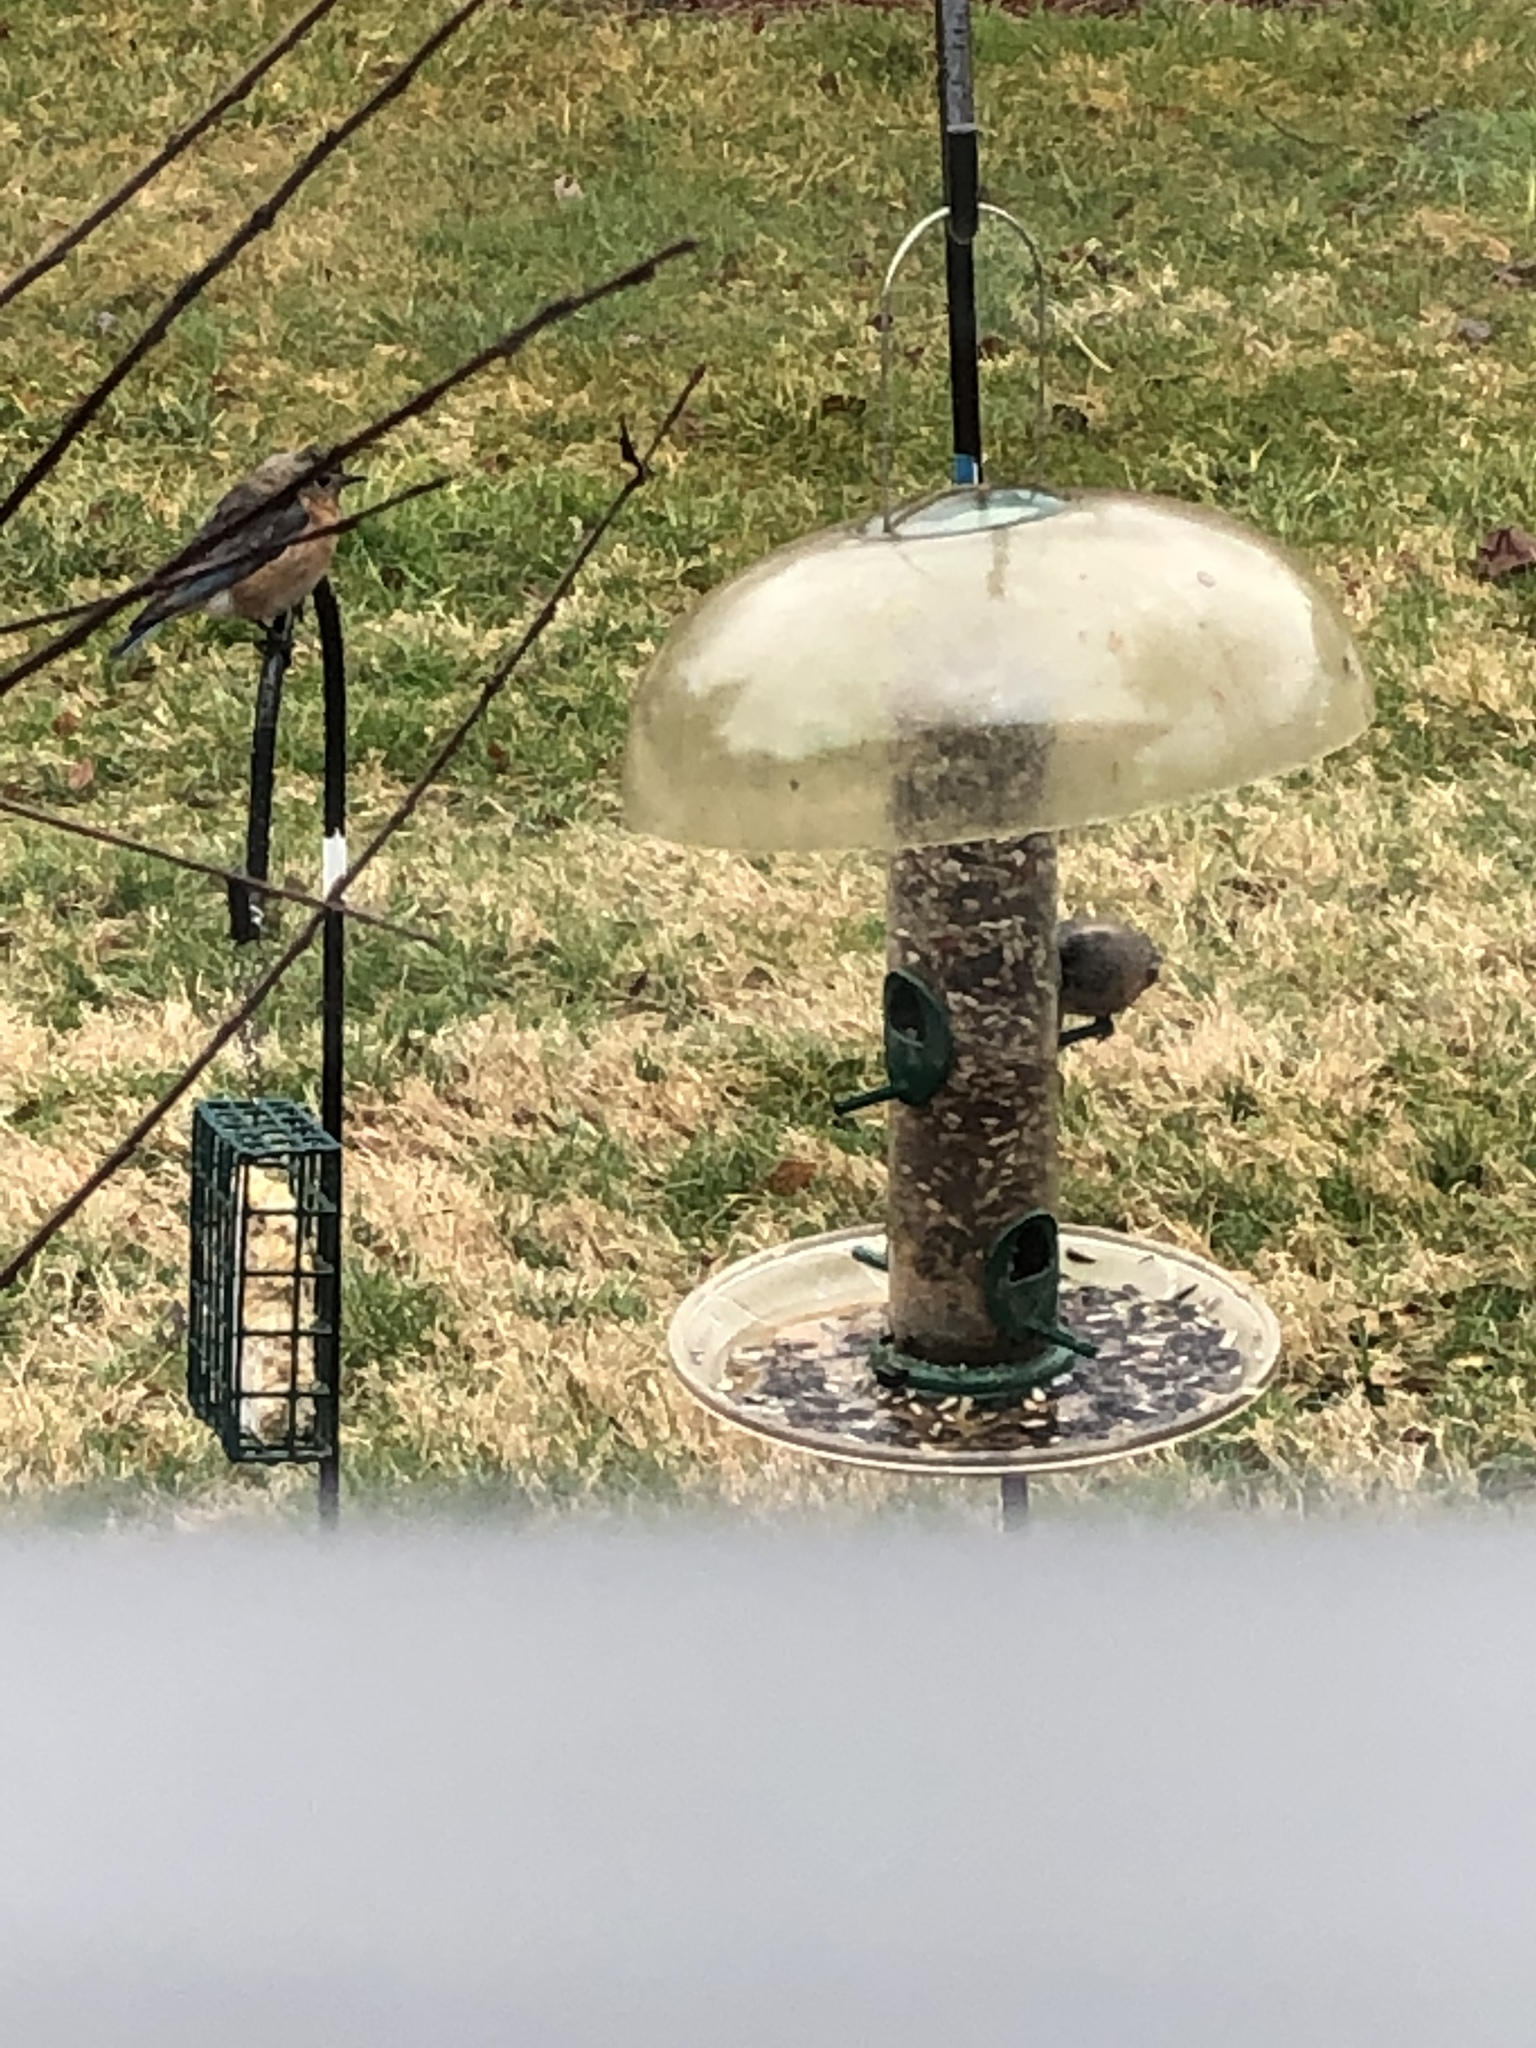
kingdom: Animalia
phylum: Chordata
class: Aves
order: Passeriformes
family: Turdidae
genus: Sialia
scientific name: Sialia sialis
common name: Eastern bluebird
